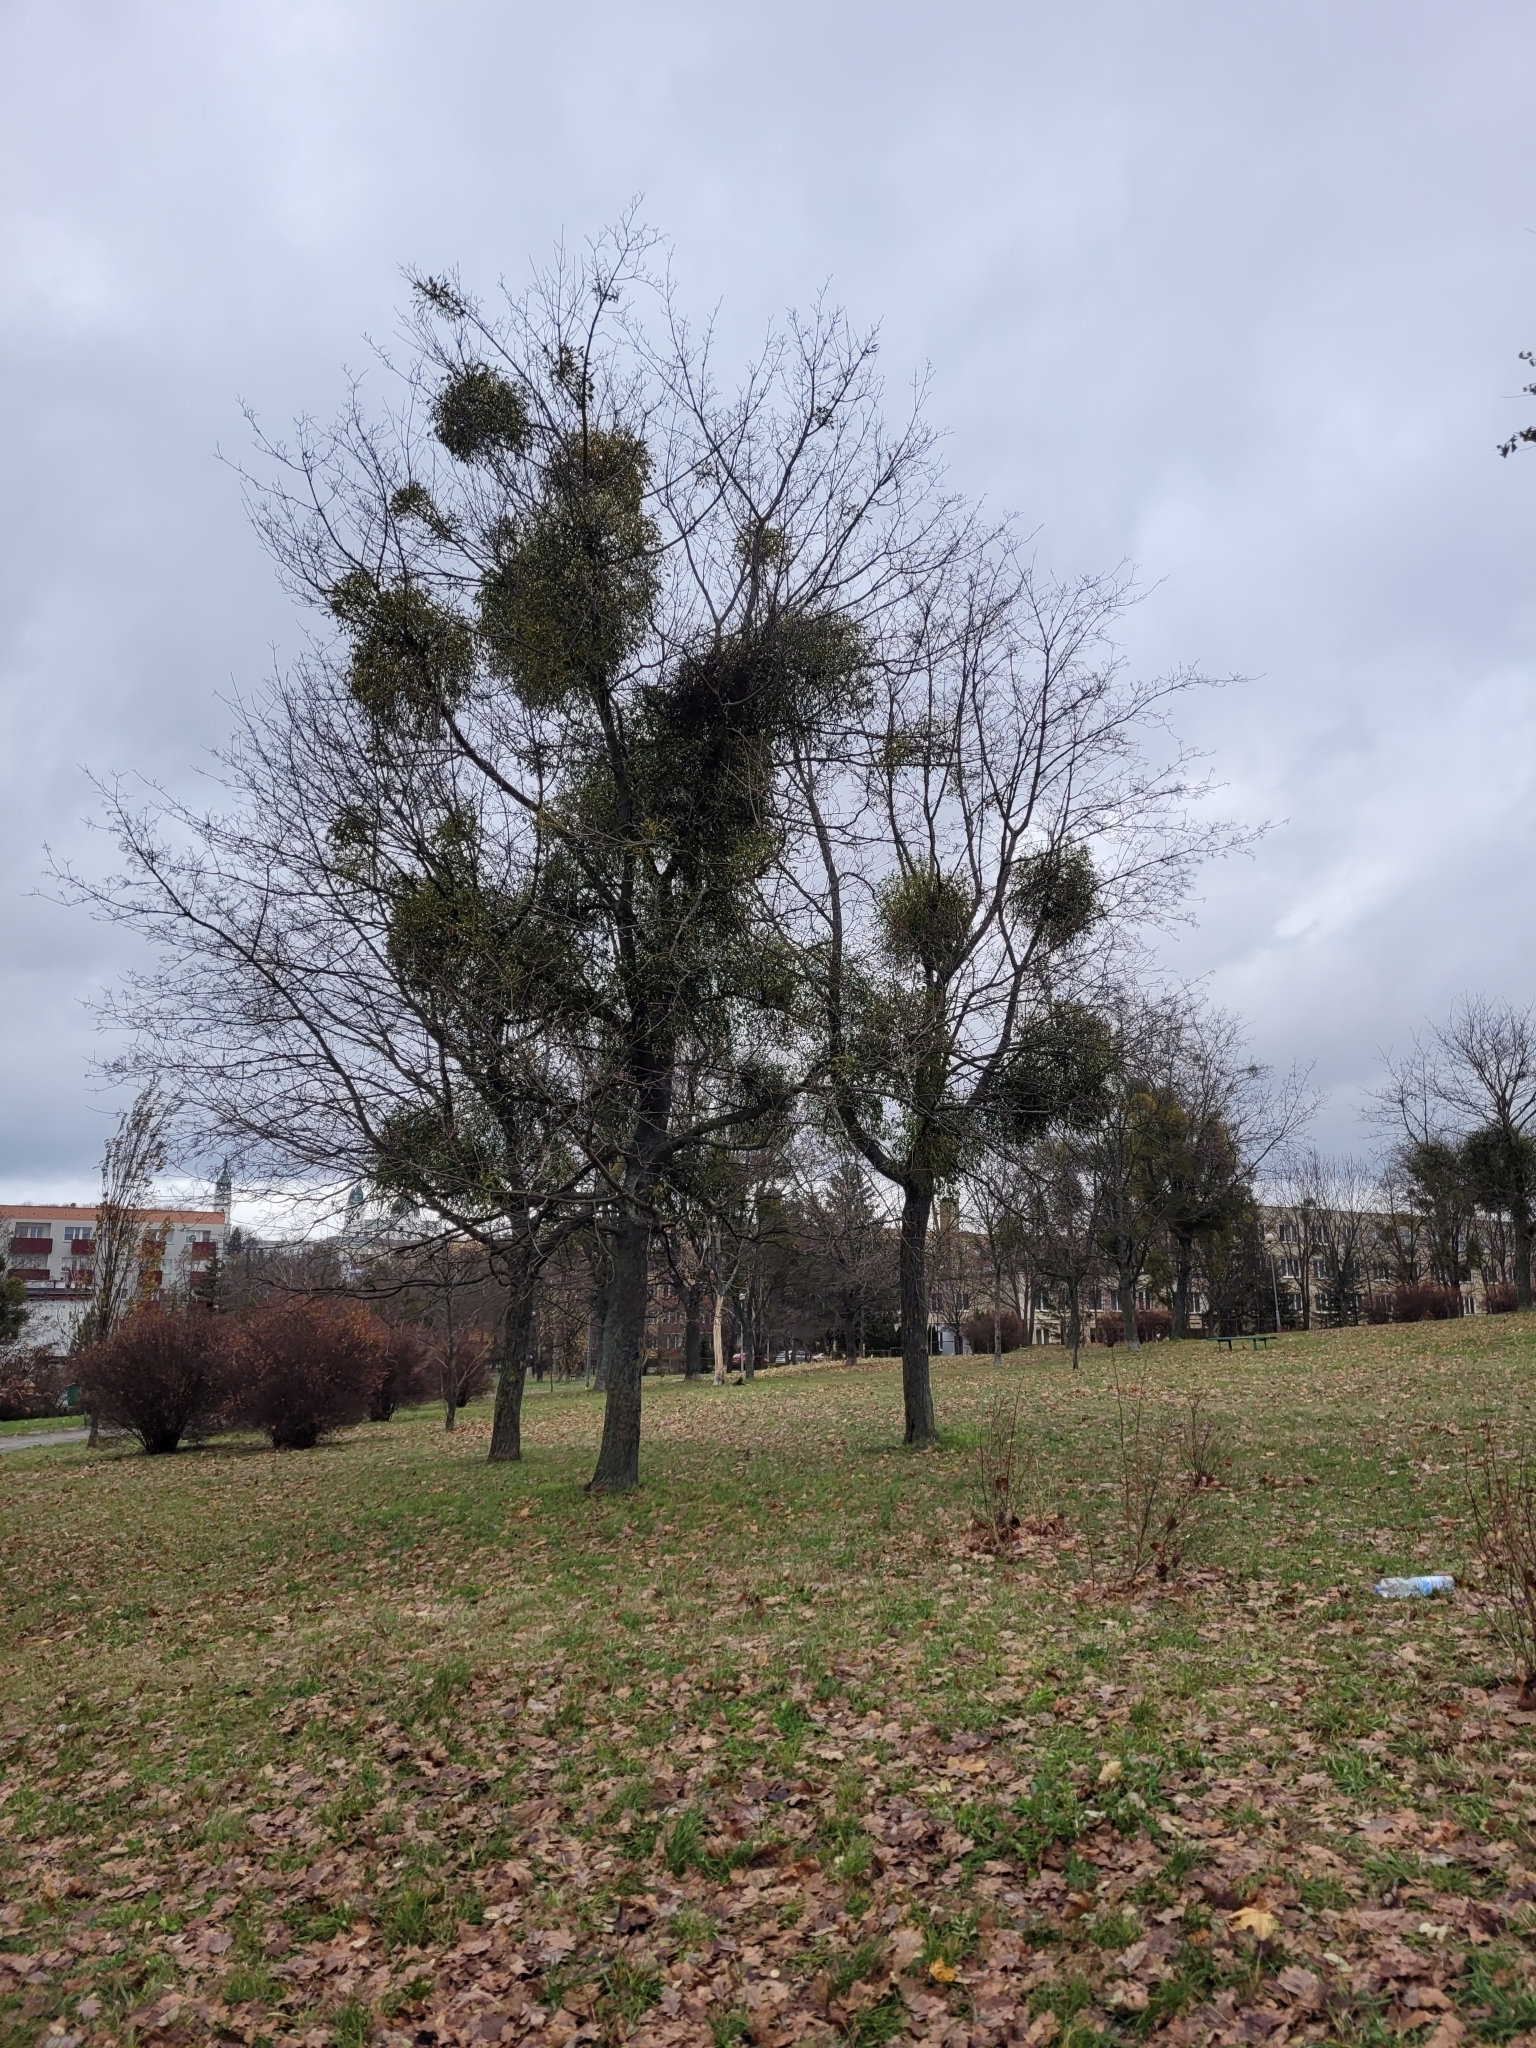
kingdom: Plantae
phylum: Tracheophyta
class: Magnoliopsida
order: Santalales
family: Viscaceae
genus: Viscum
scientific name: Viscum album
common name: Mistletoe
